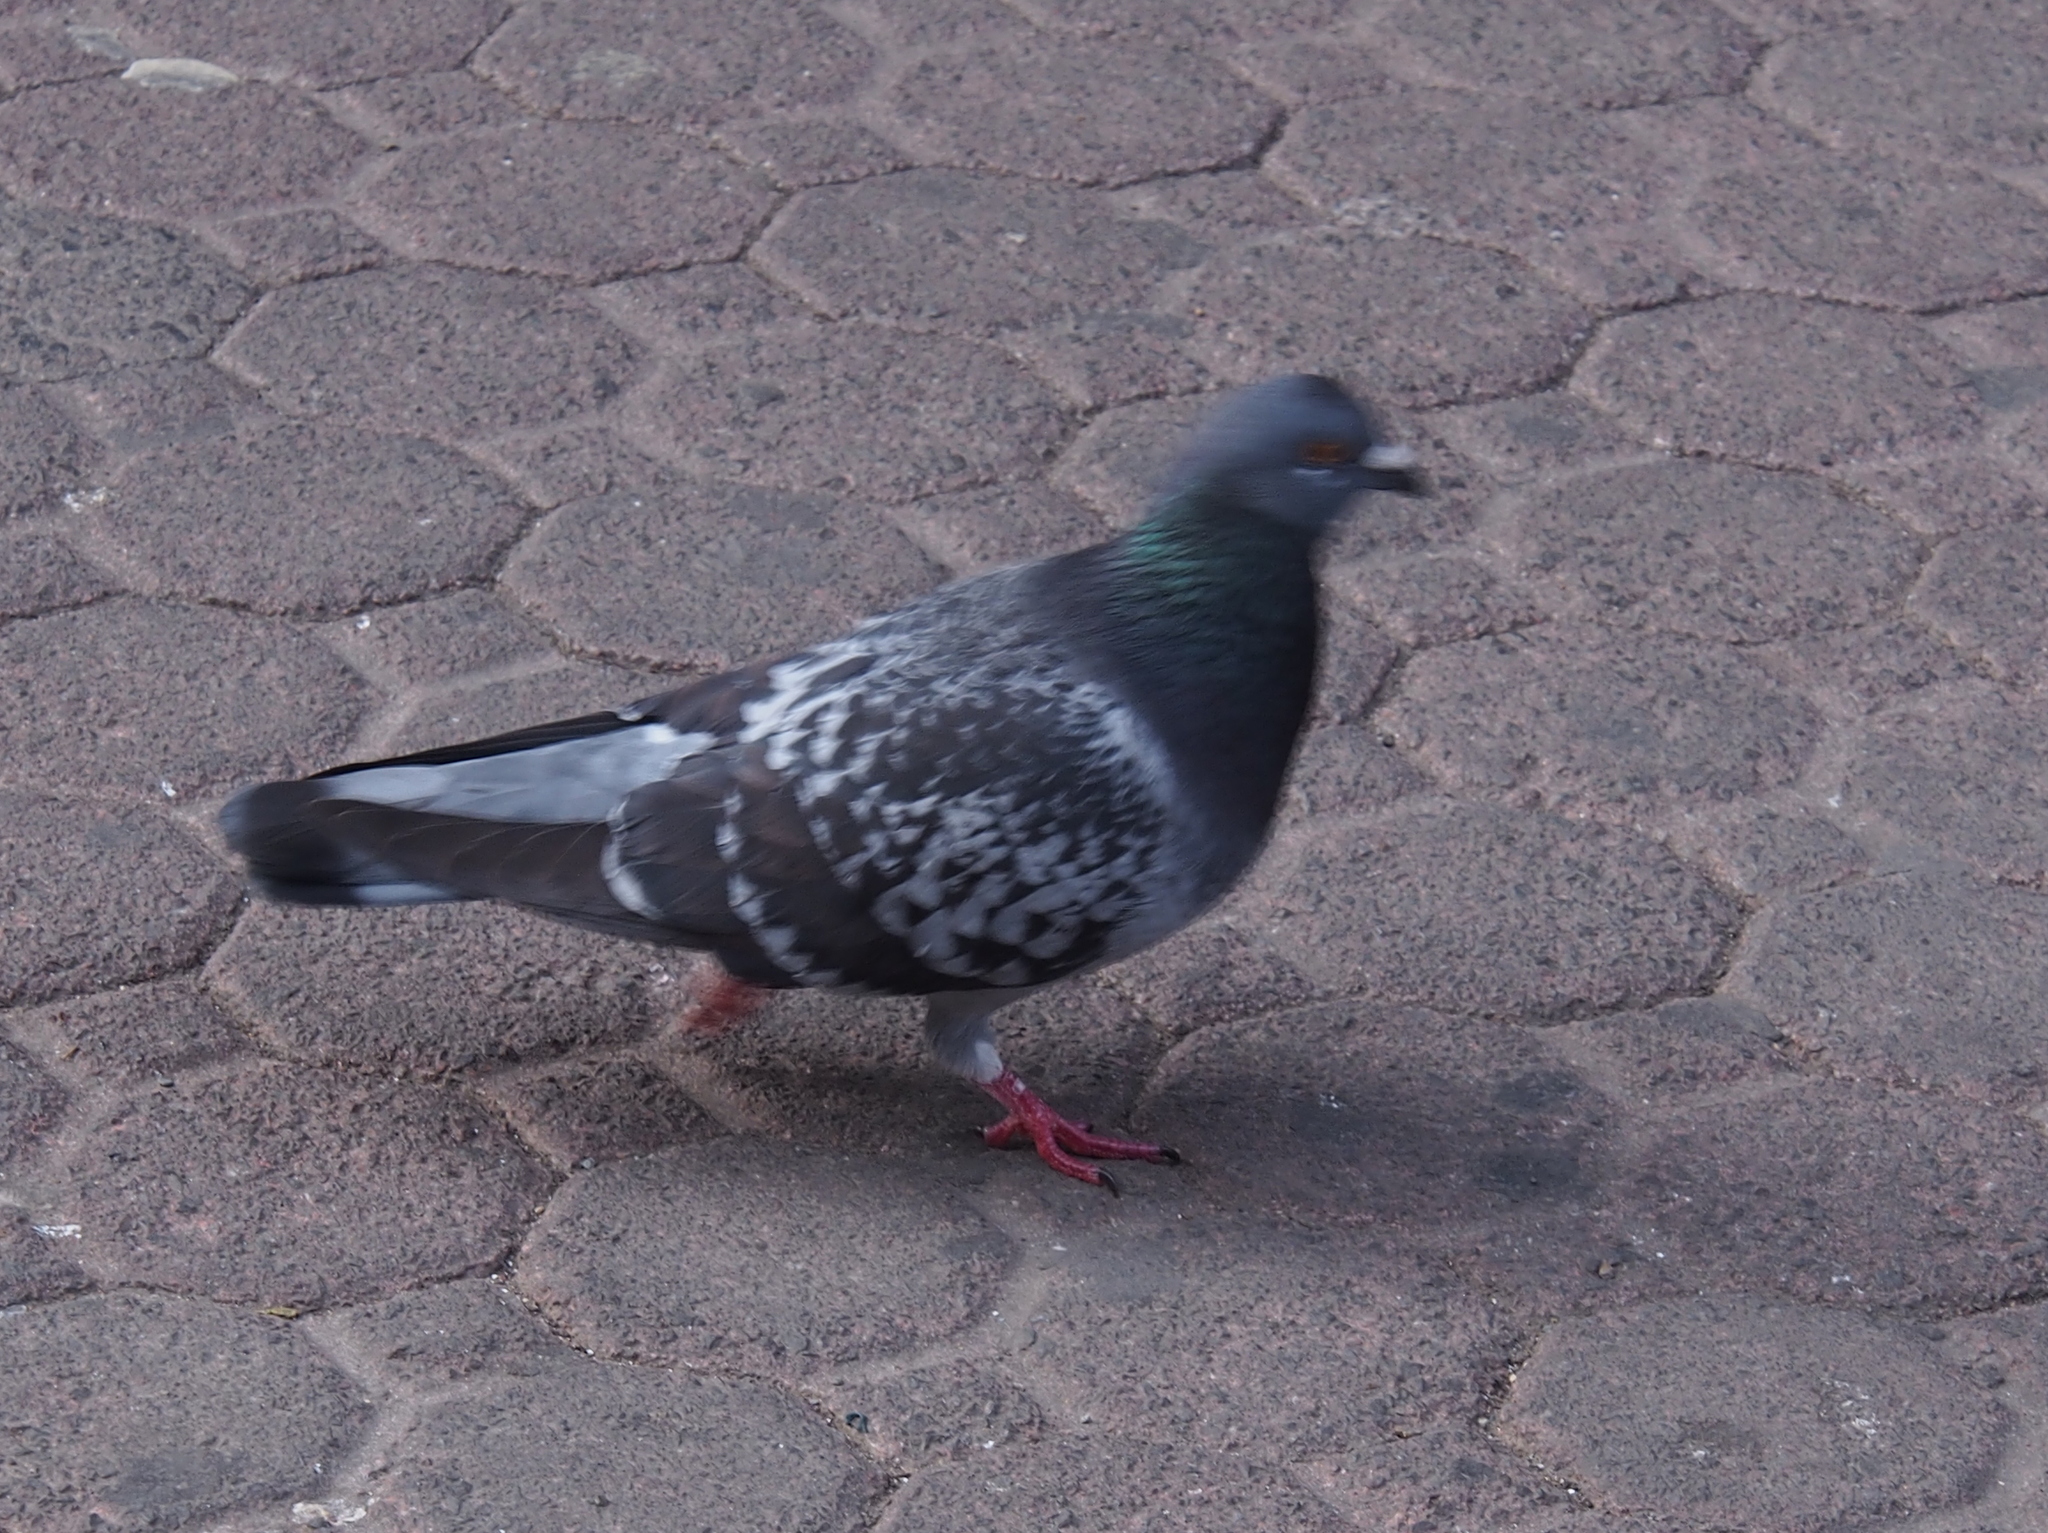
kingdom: Animalia
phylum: Chordata
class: Aves
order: Columbiformes
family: Columbidae
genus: Columba
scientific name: Columba livia
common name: Rock pigeon
